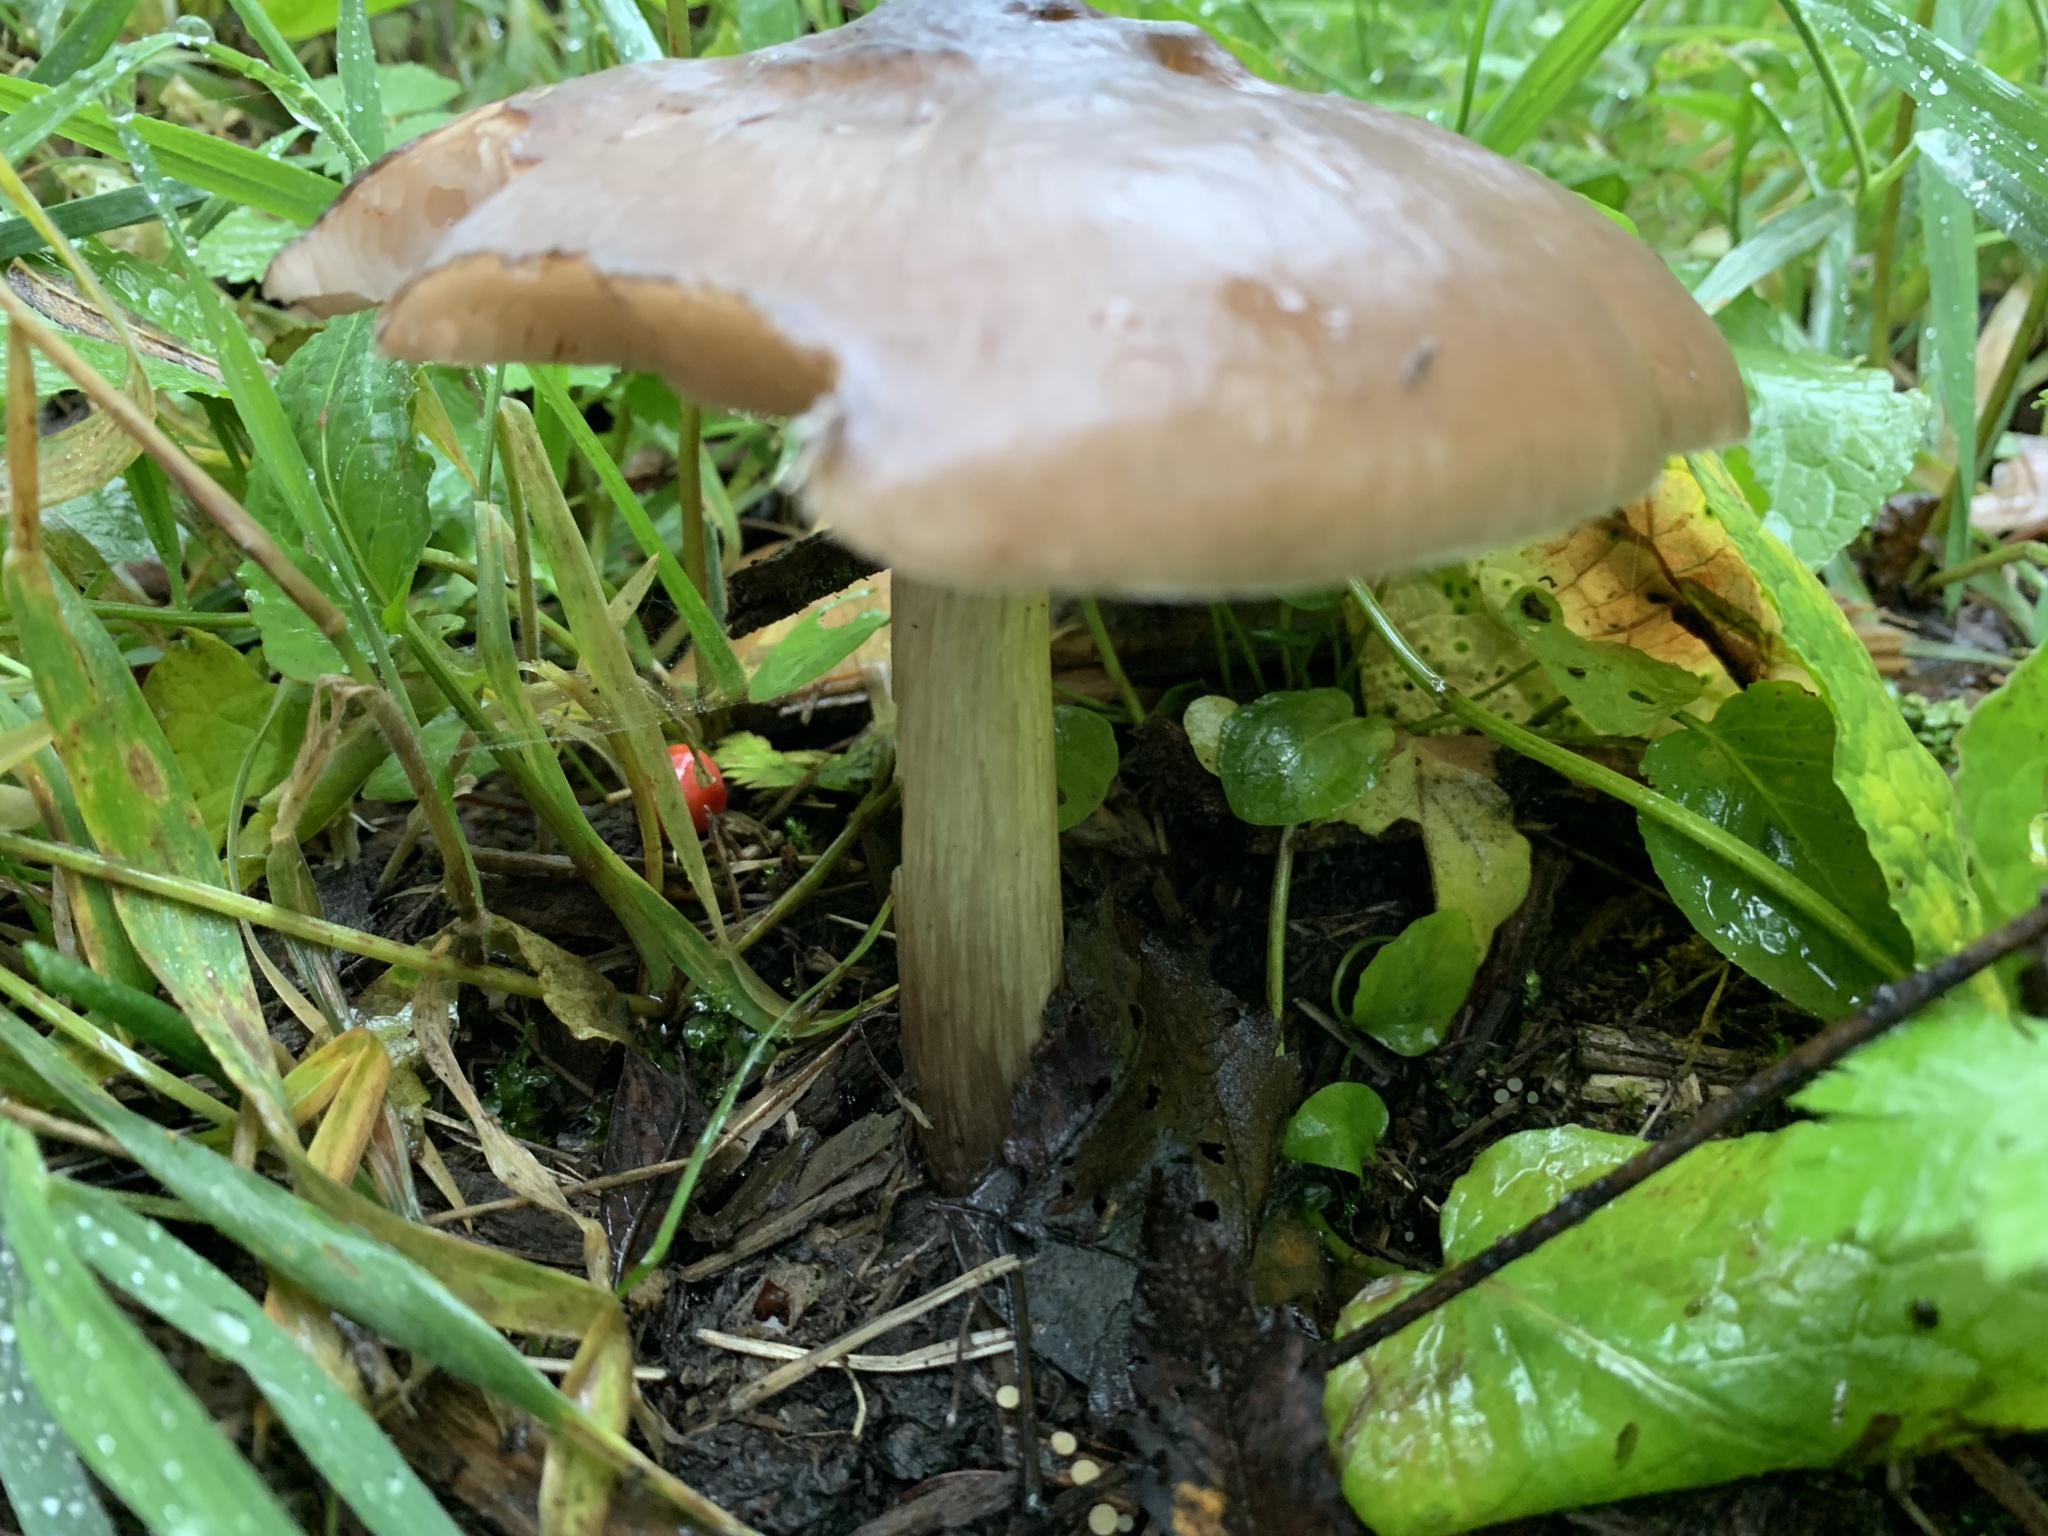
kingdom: Fungi
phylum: Basidiomycota
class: Agaricomycetes
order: Agaricales
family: Pluteaceae
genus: Pluteus
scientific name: Pluteus cervinus
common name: Deer shield
